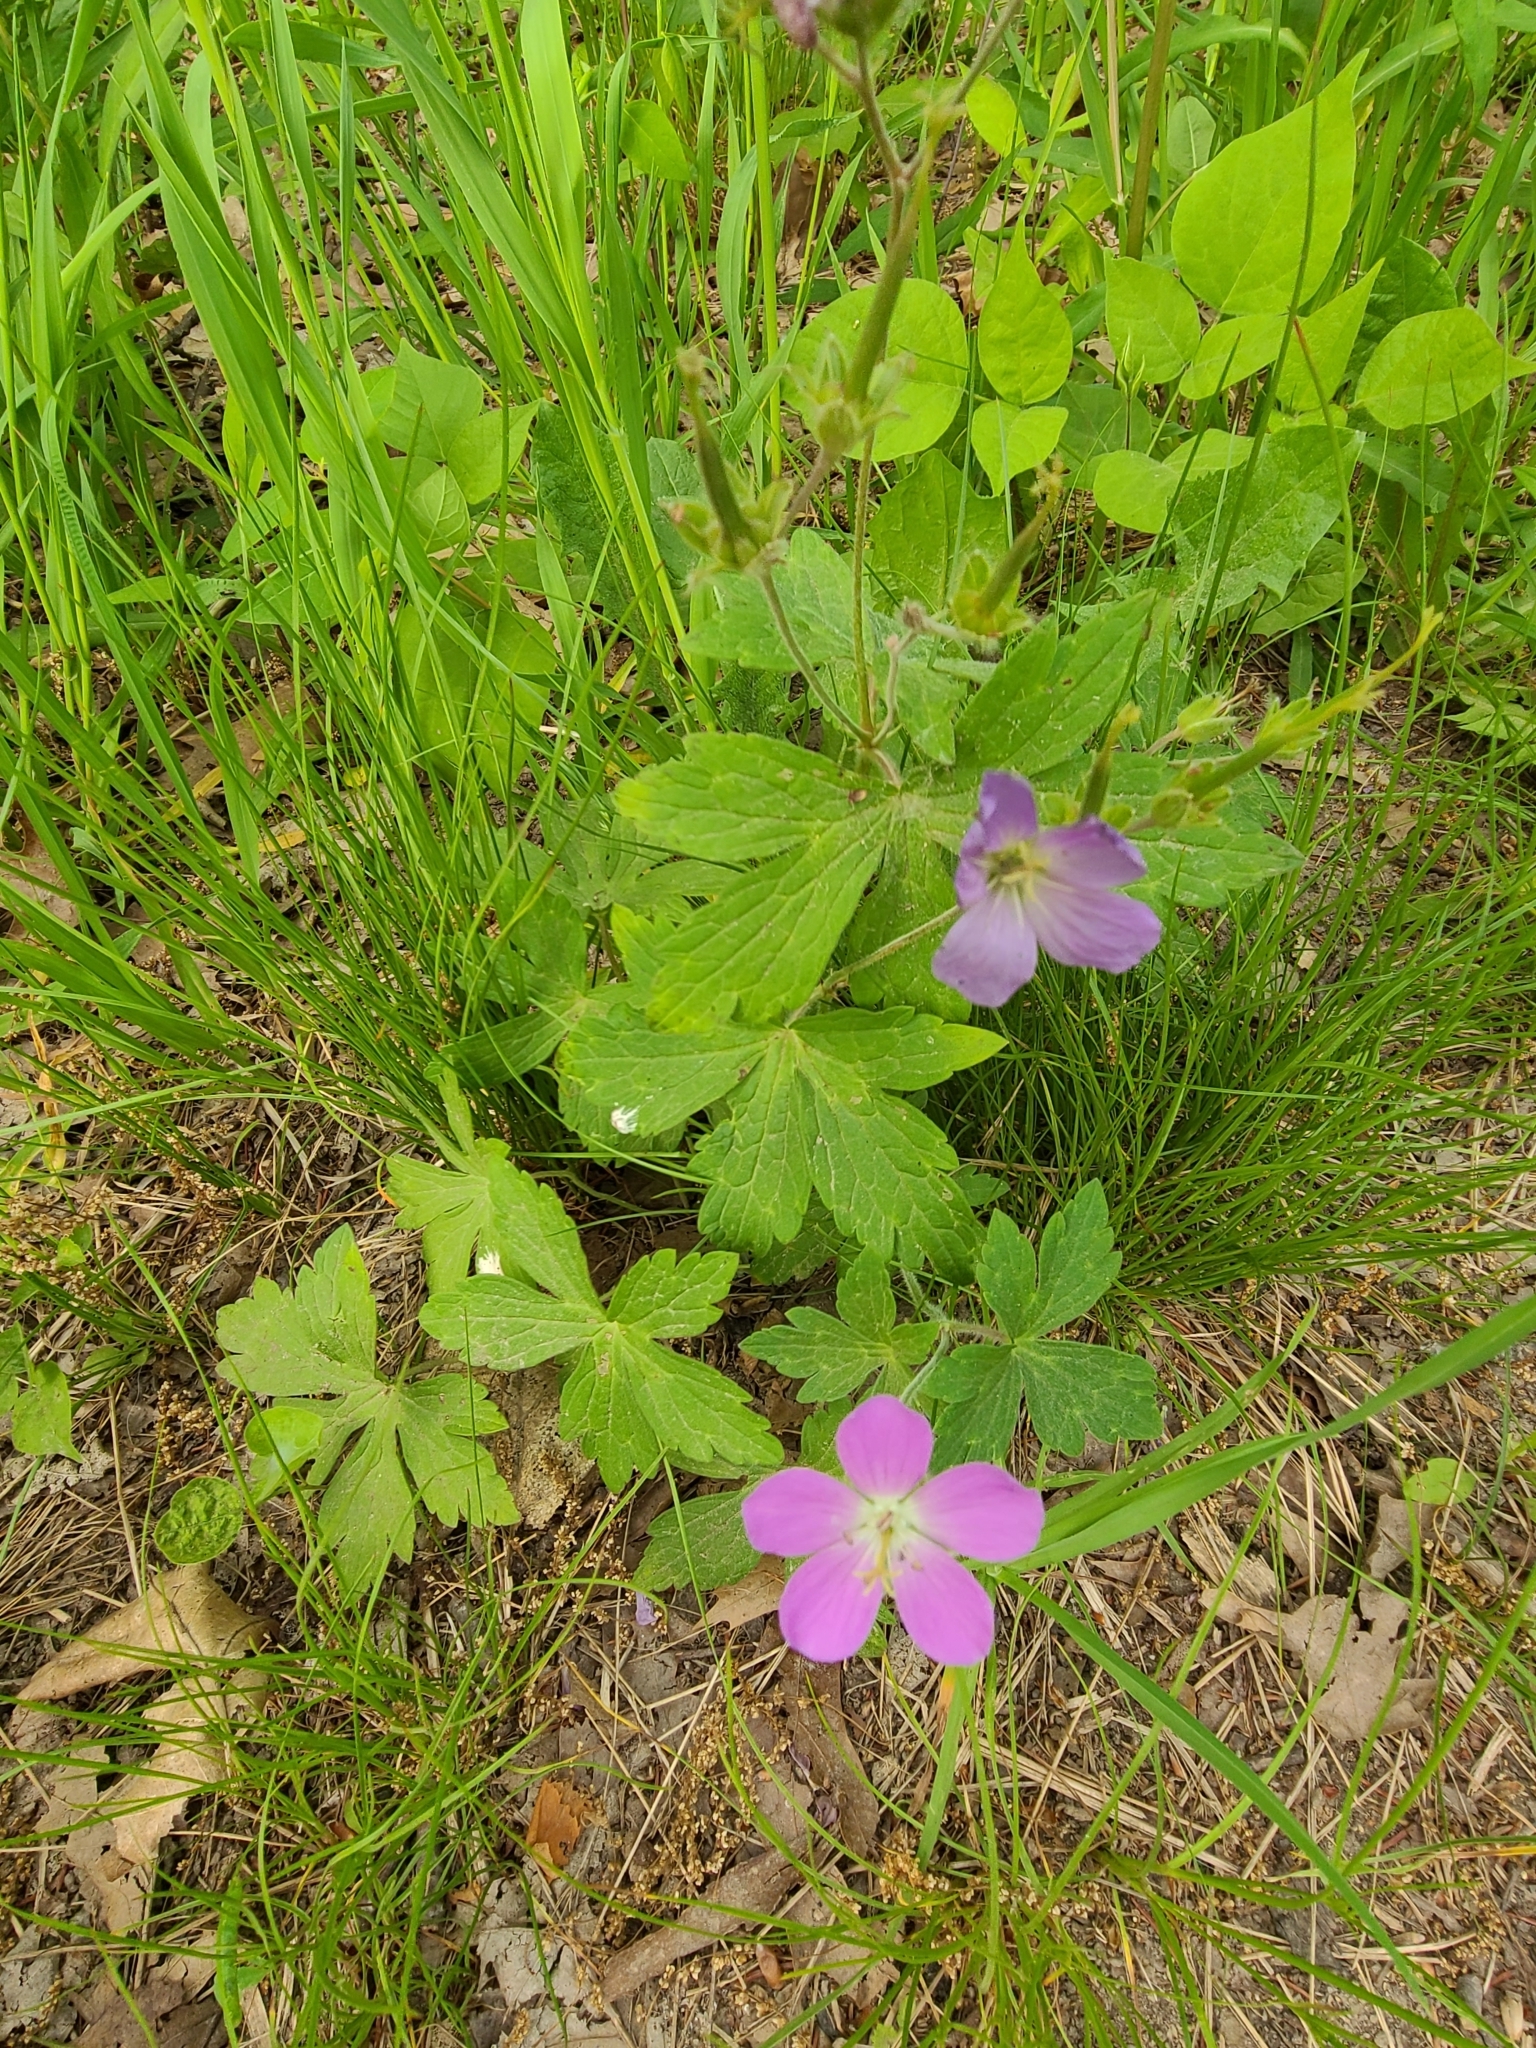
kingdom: Plantae
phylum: Tracheophyta
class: Magnoliopsida
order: Geraniales
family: Geraniaceae
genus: Geranium
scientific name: Geranium maculatum
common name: Spotted geranium
